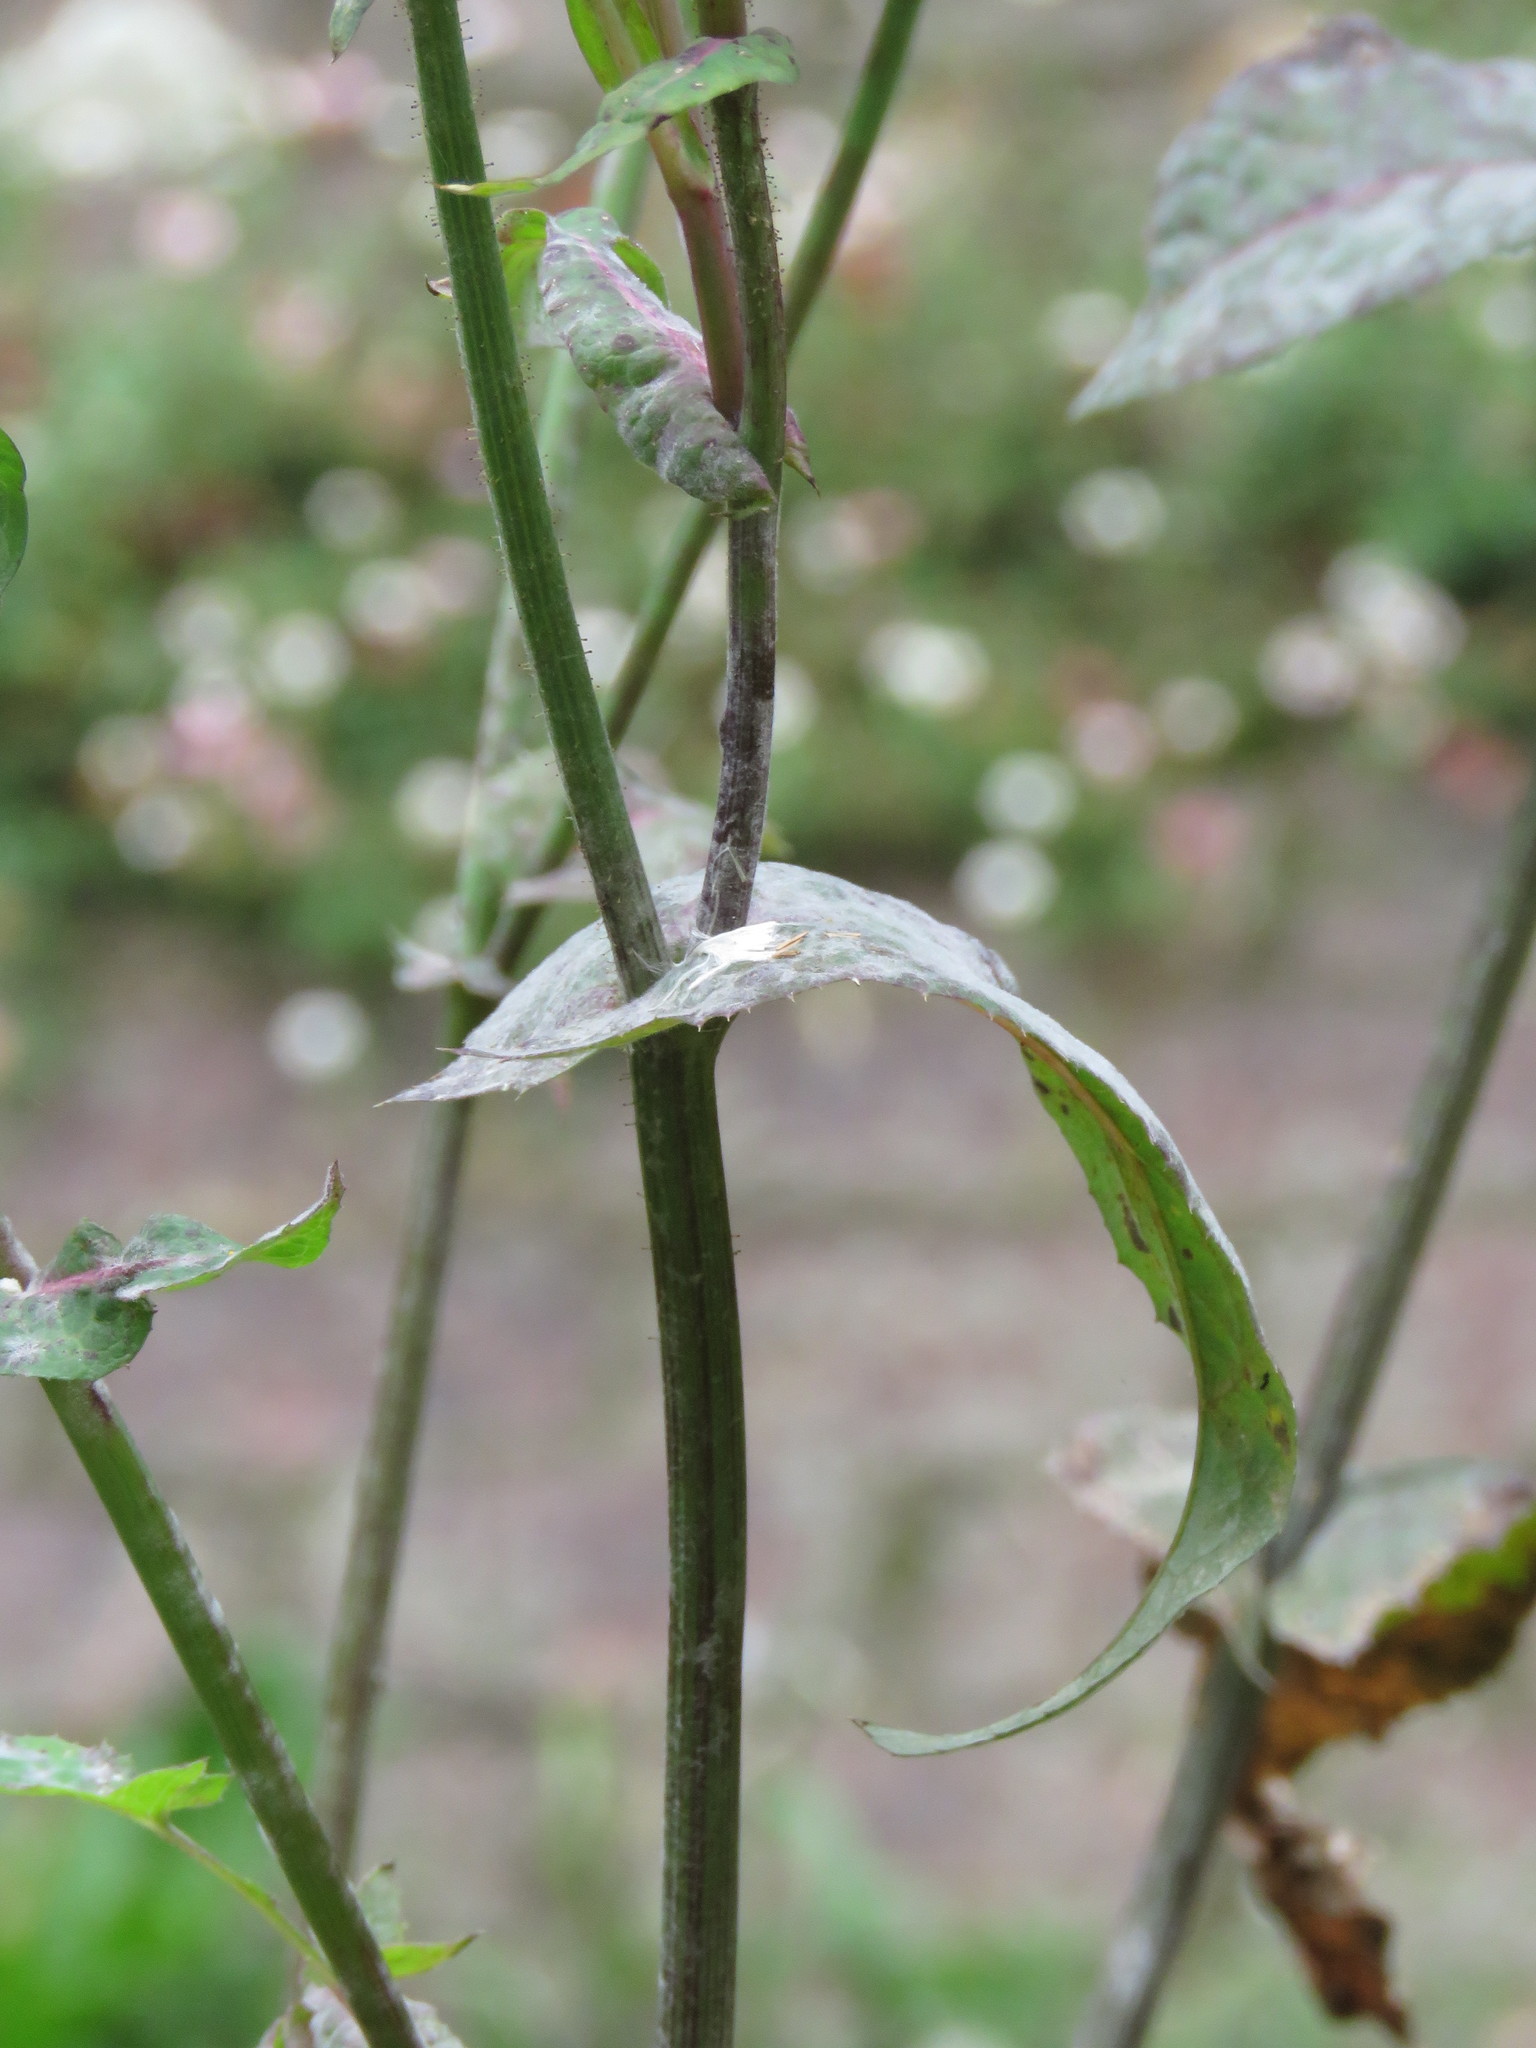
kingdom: Plantae
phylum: Tracheophyta
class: Magnoliopsida
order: Asterales
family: Asteraceae
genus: Sonchus
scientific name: Sonchus oleraceus
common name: Common sowthistle
